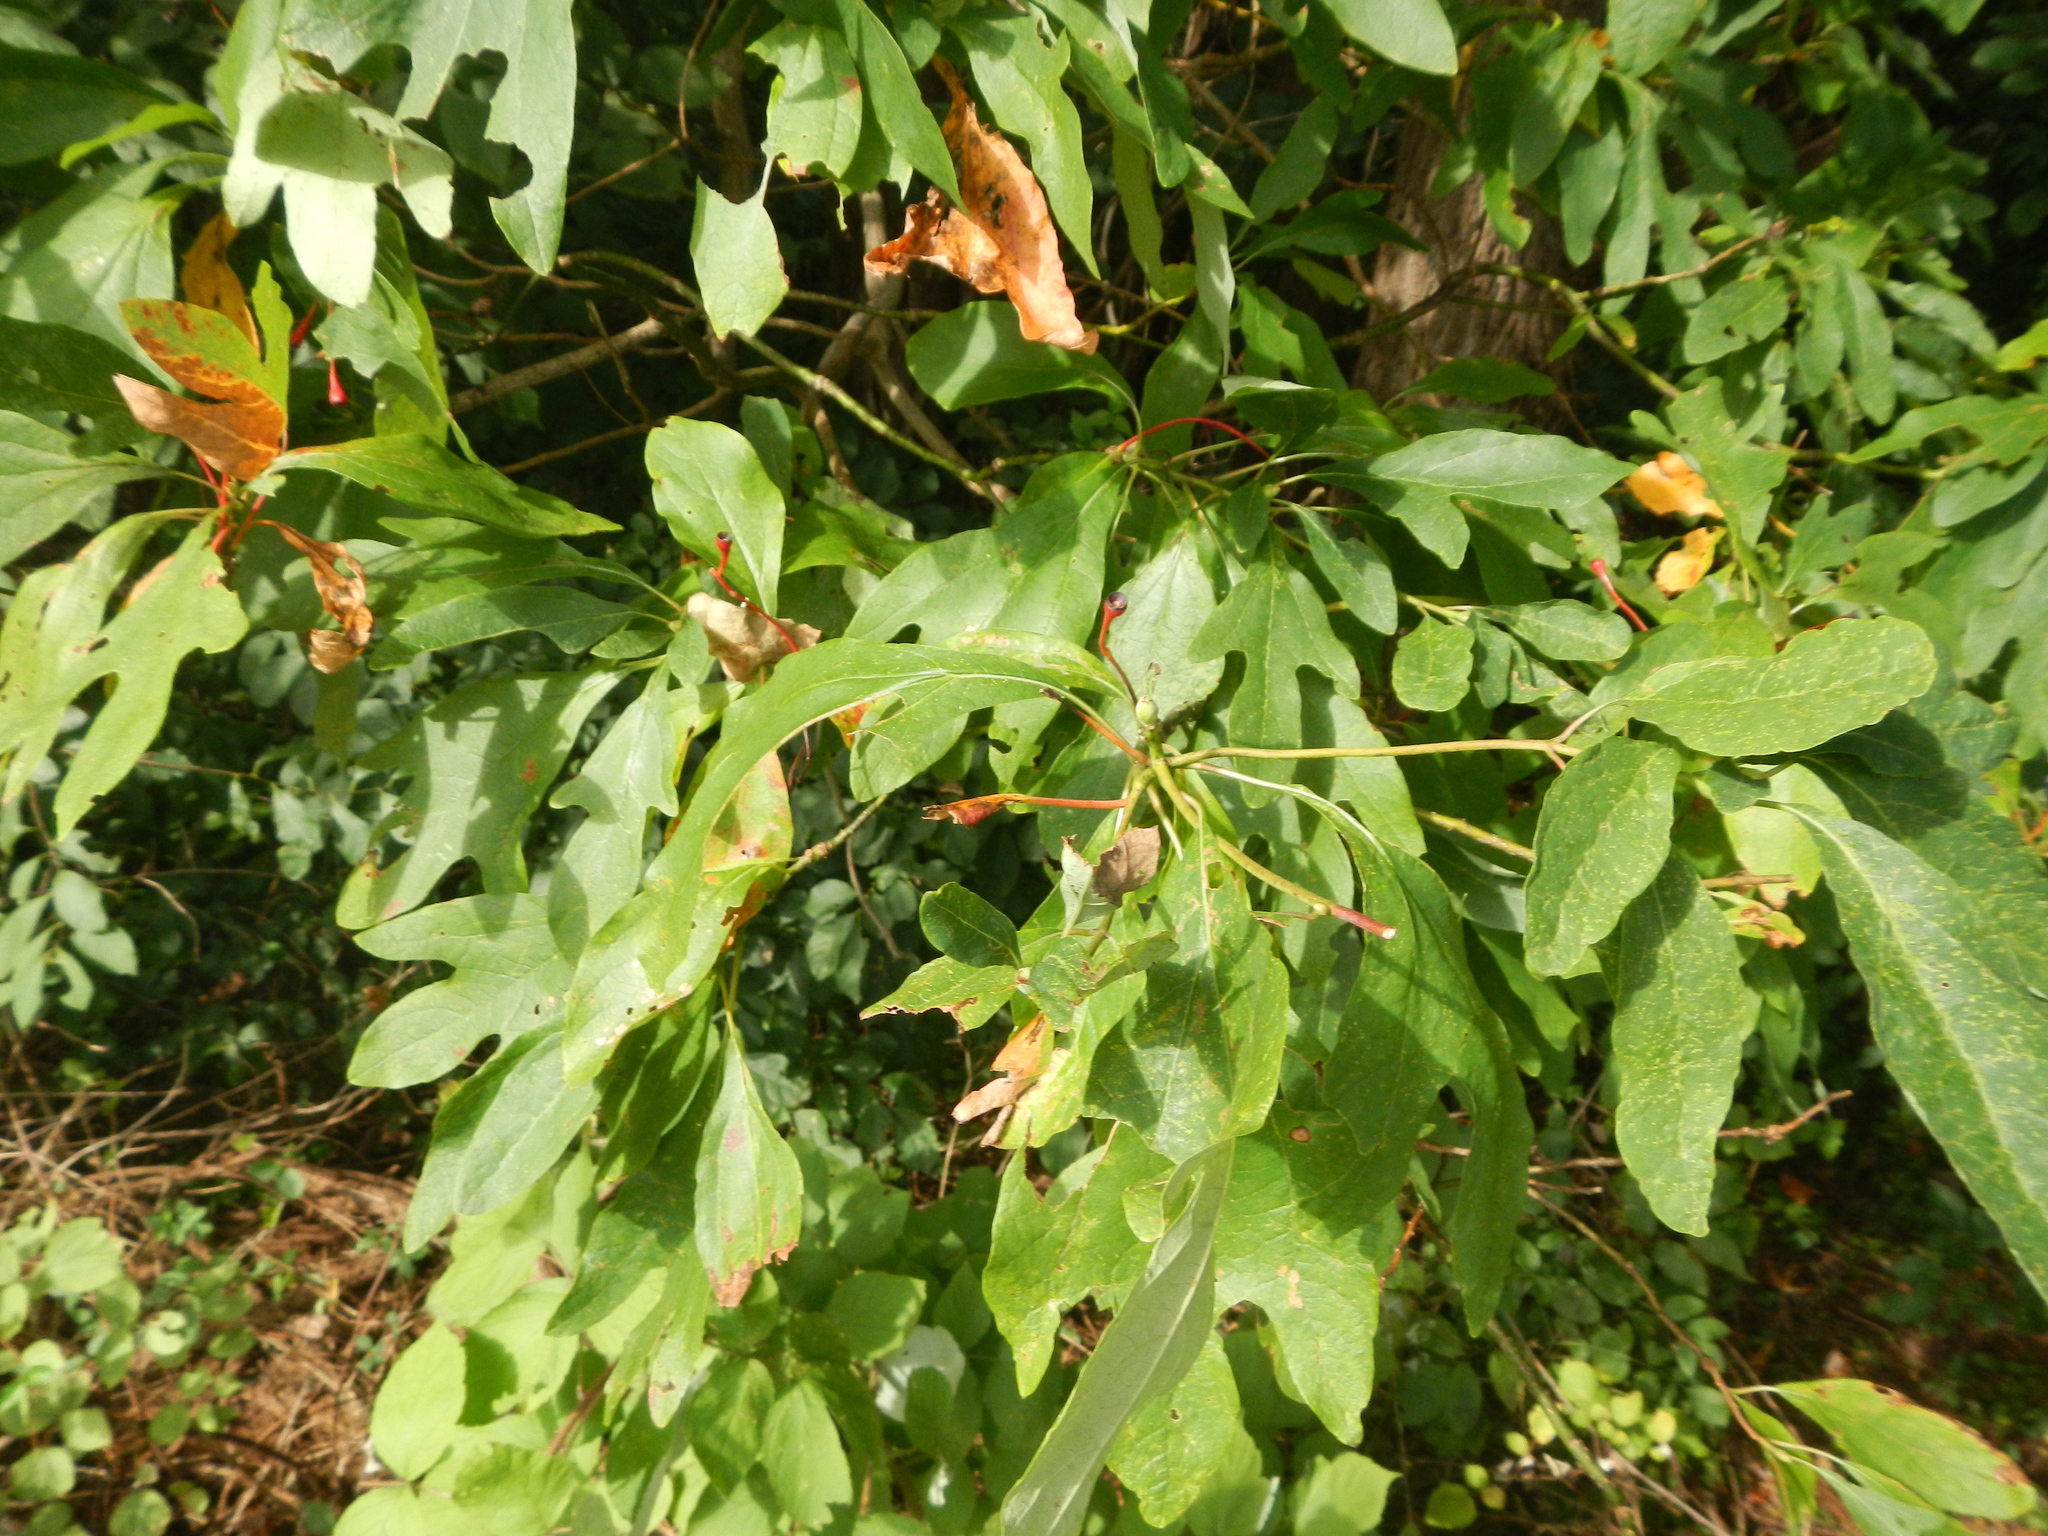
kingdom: Plantae
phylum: Tracheophyta
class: Magnoliopsida
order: Laurales
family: Lauraceae
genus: Sassafras
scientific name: Sassafras albidum
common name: Sassafras
